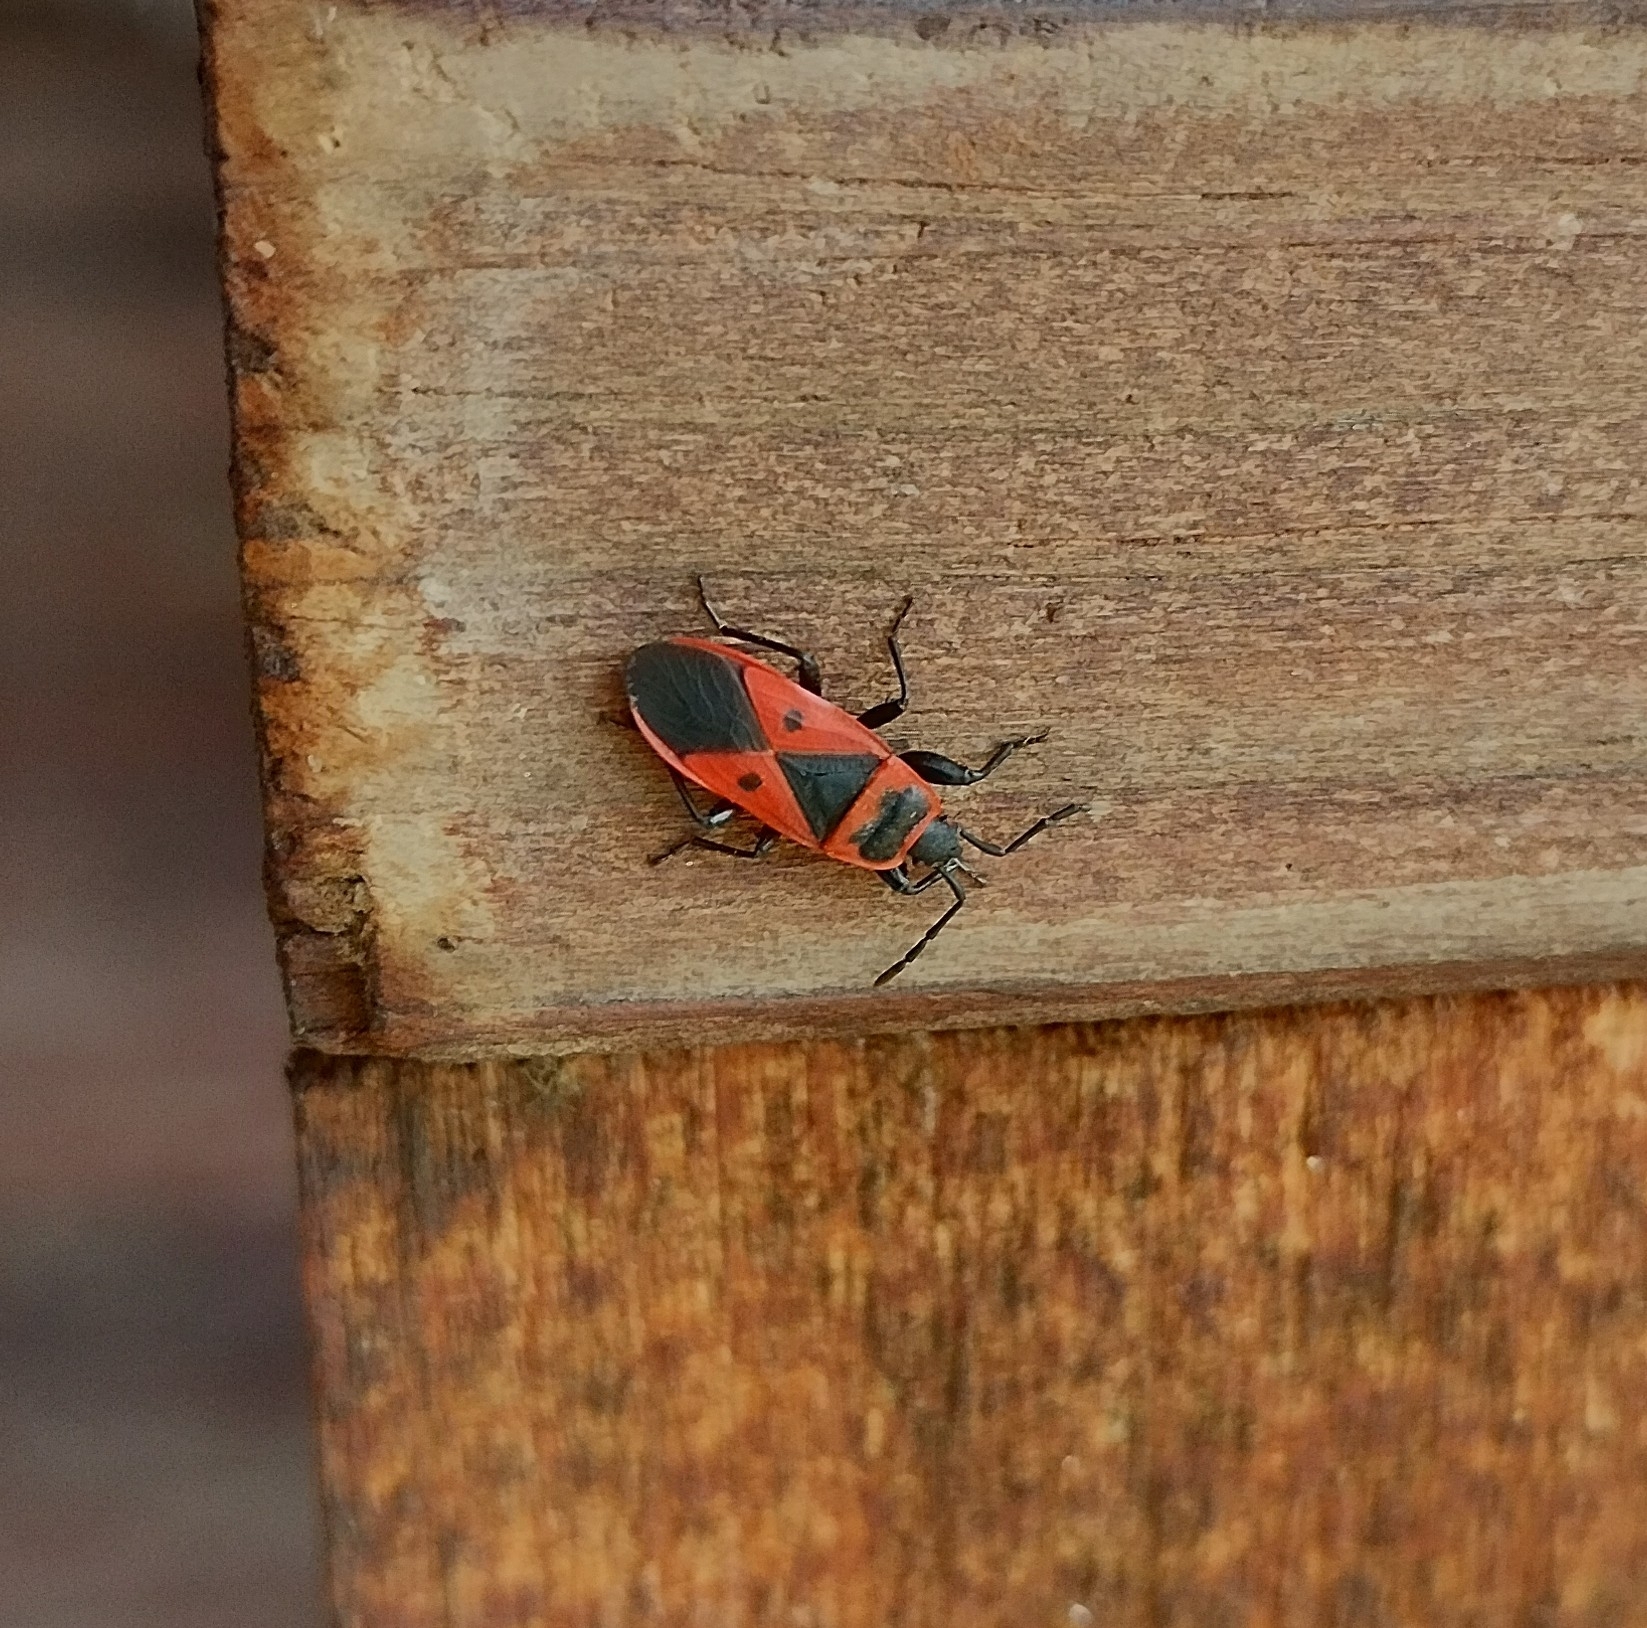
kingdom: Animalia
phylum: Arthropoda
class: Insecta
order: Hemiptera
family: Pyrrhocoridae
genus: Scantius
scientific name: Scantius aegyptius
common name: Red bug
